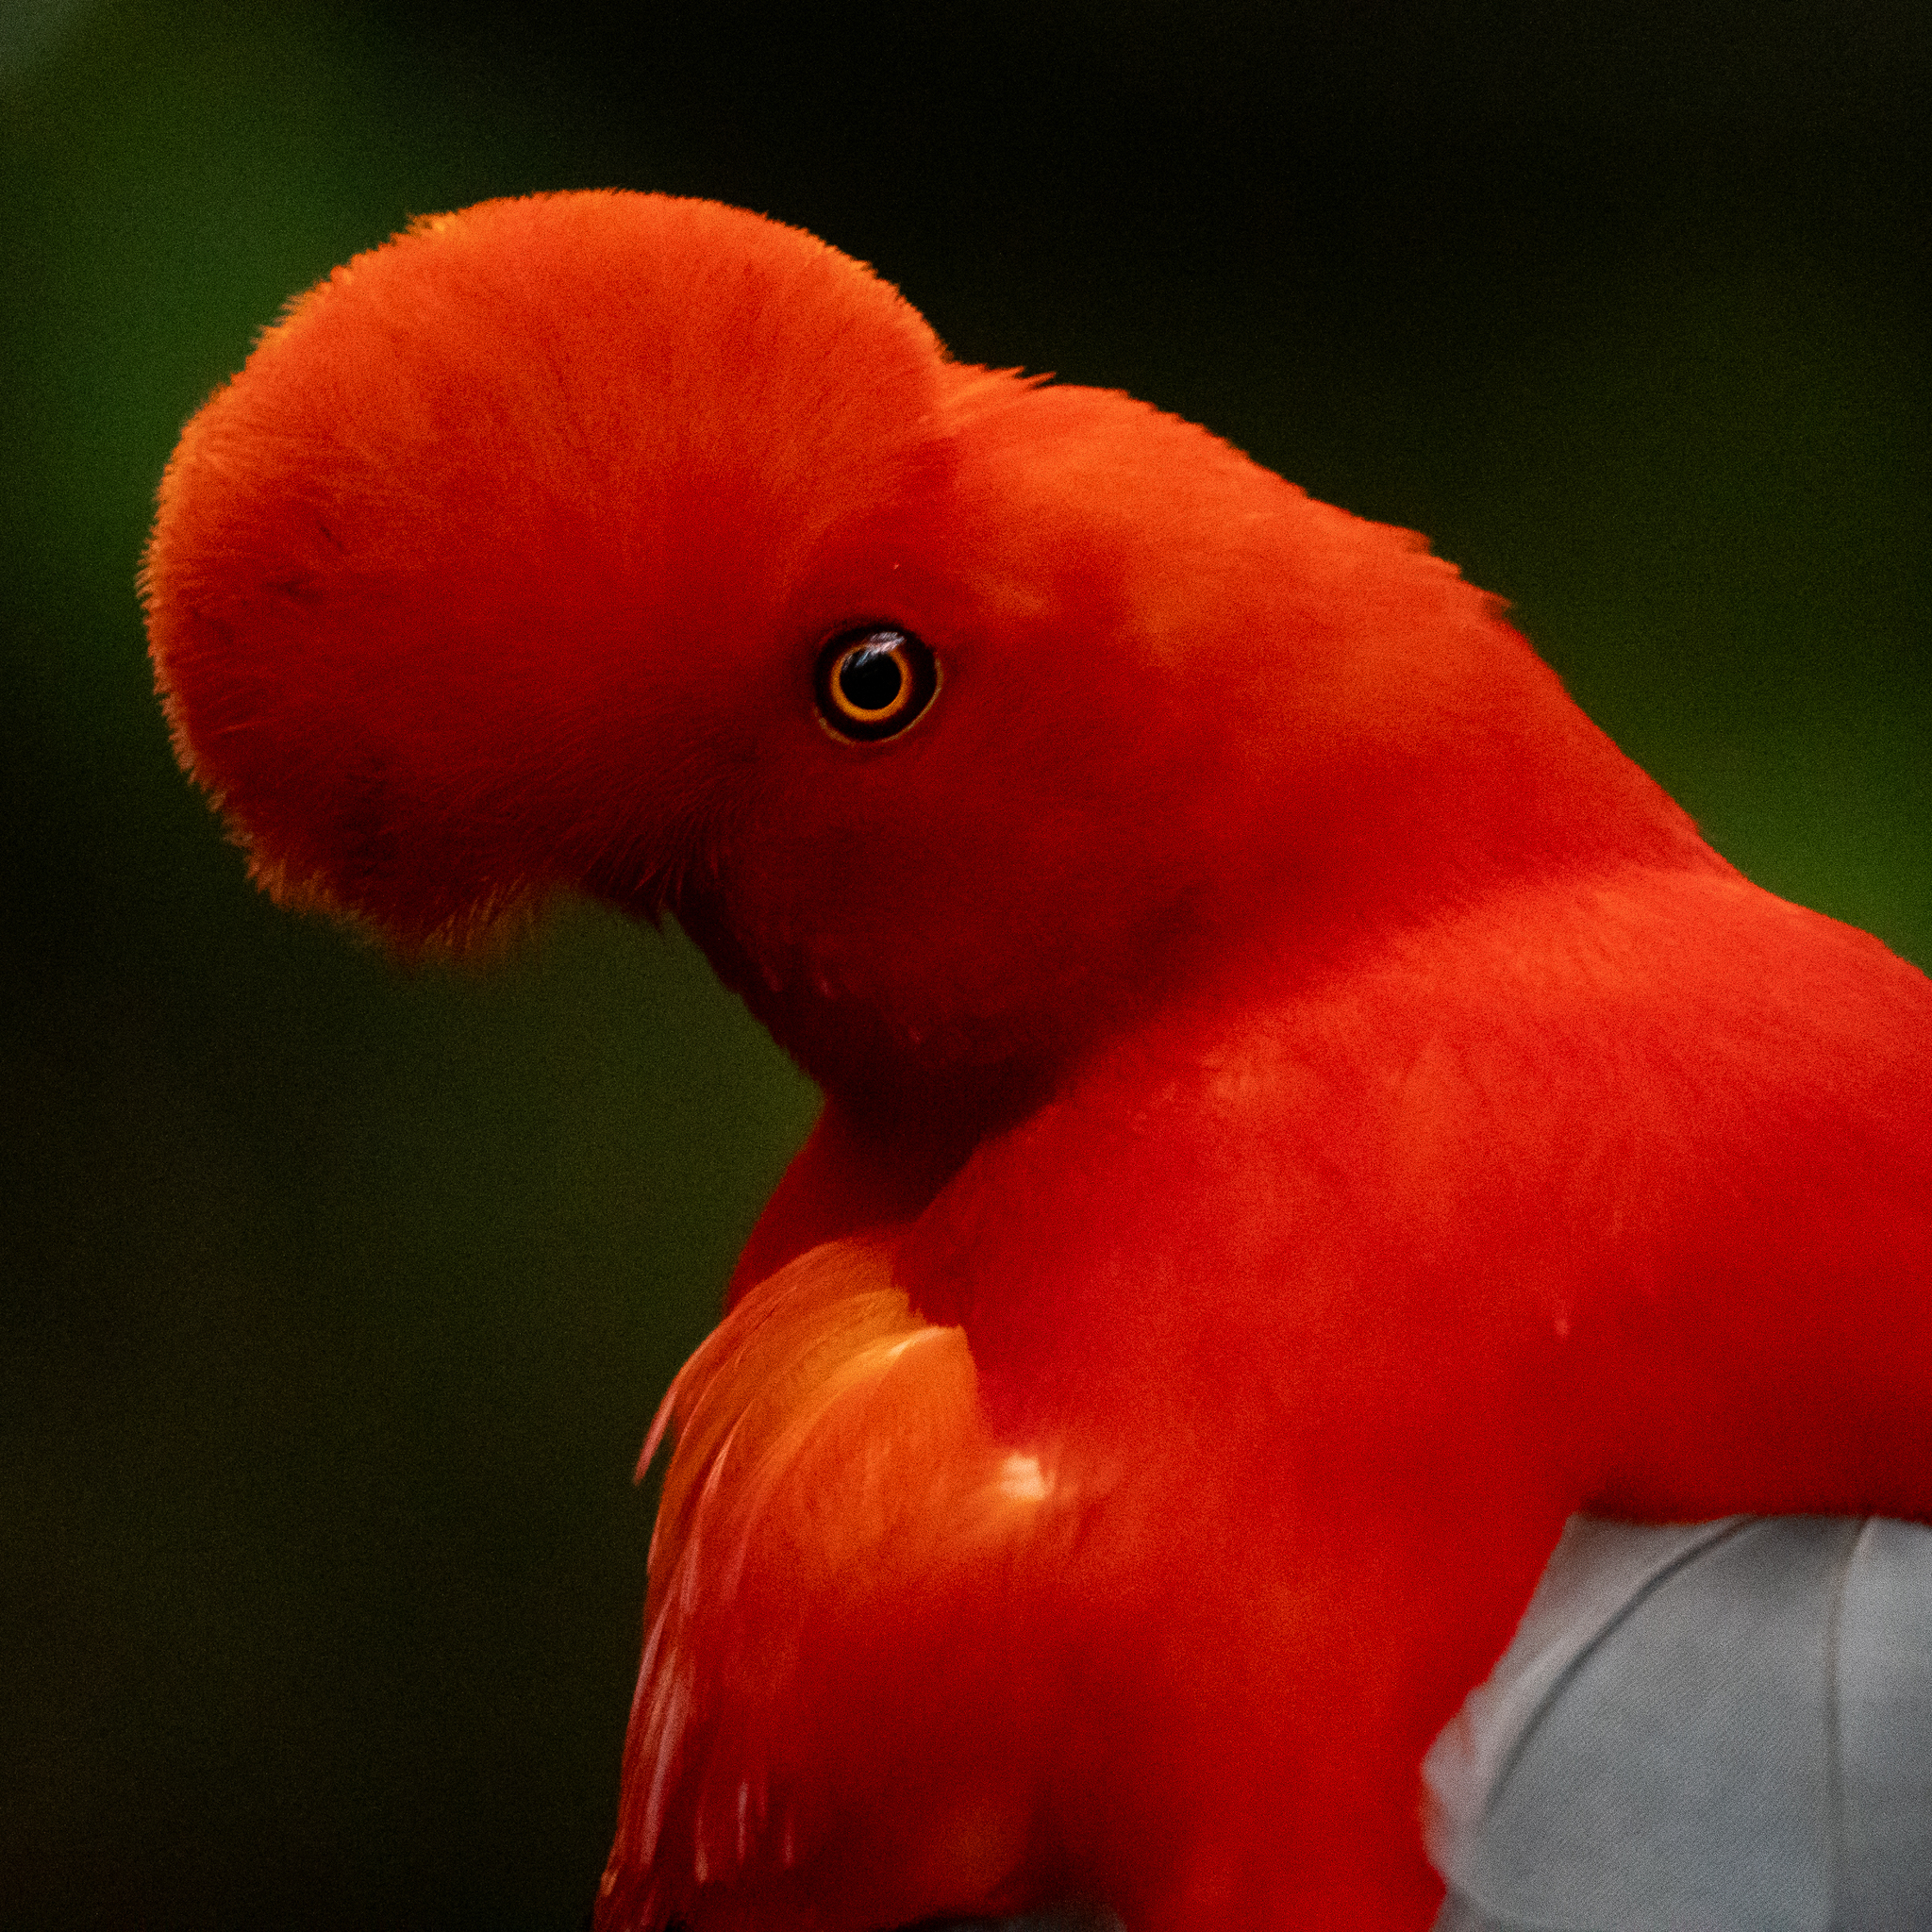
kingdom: Animalia
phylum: Chordata
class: Aves
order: Passeriformes
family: Cotingidae
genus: Rupicola
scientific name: Rupicola peruvianus
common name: Andean cock-of-the-rock
